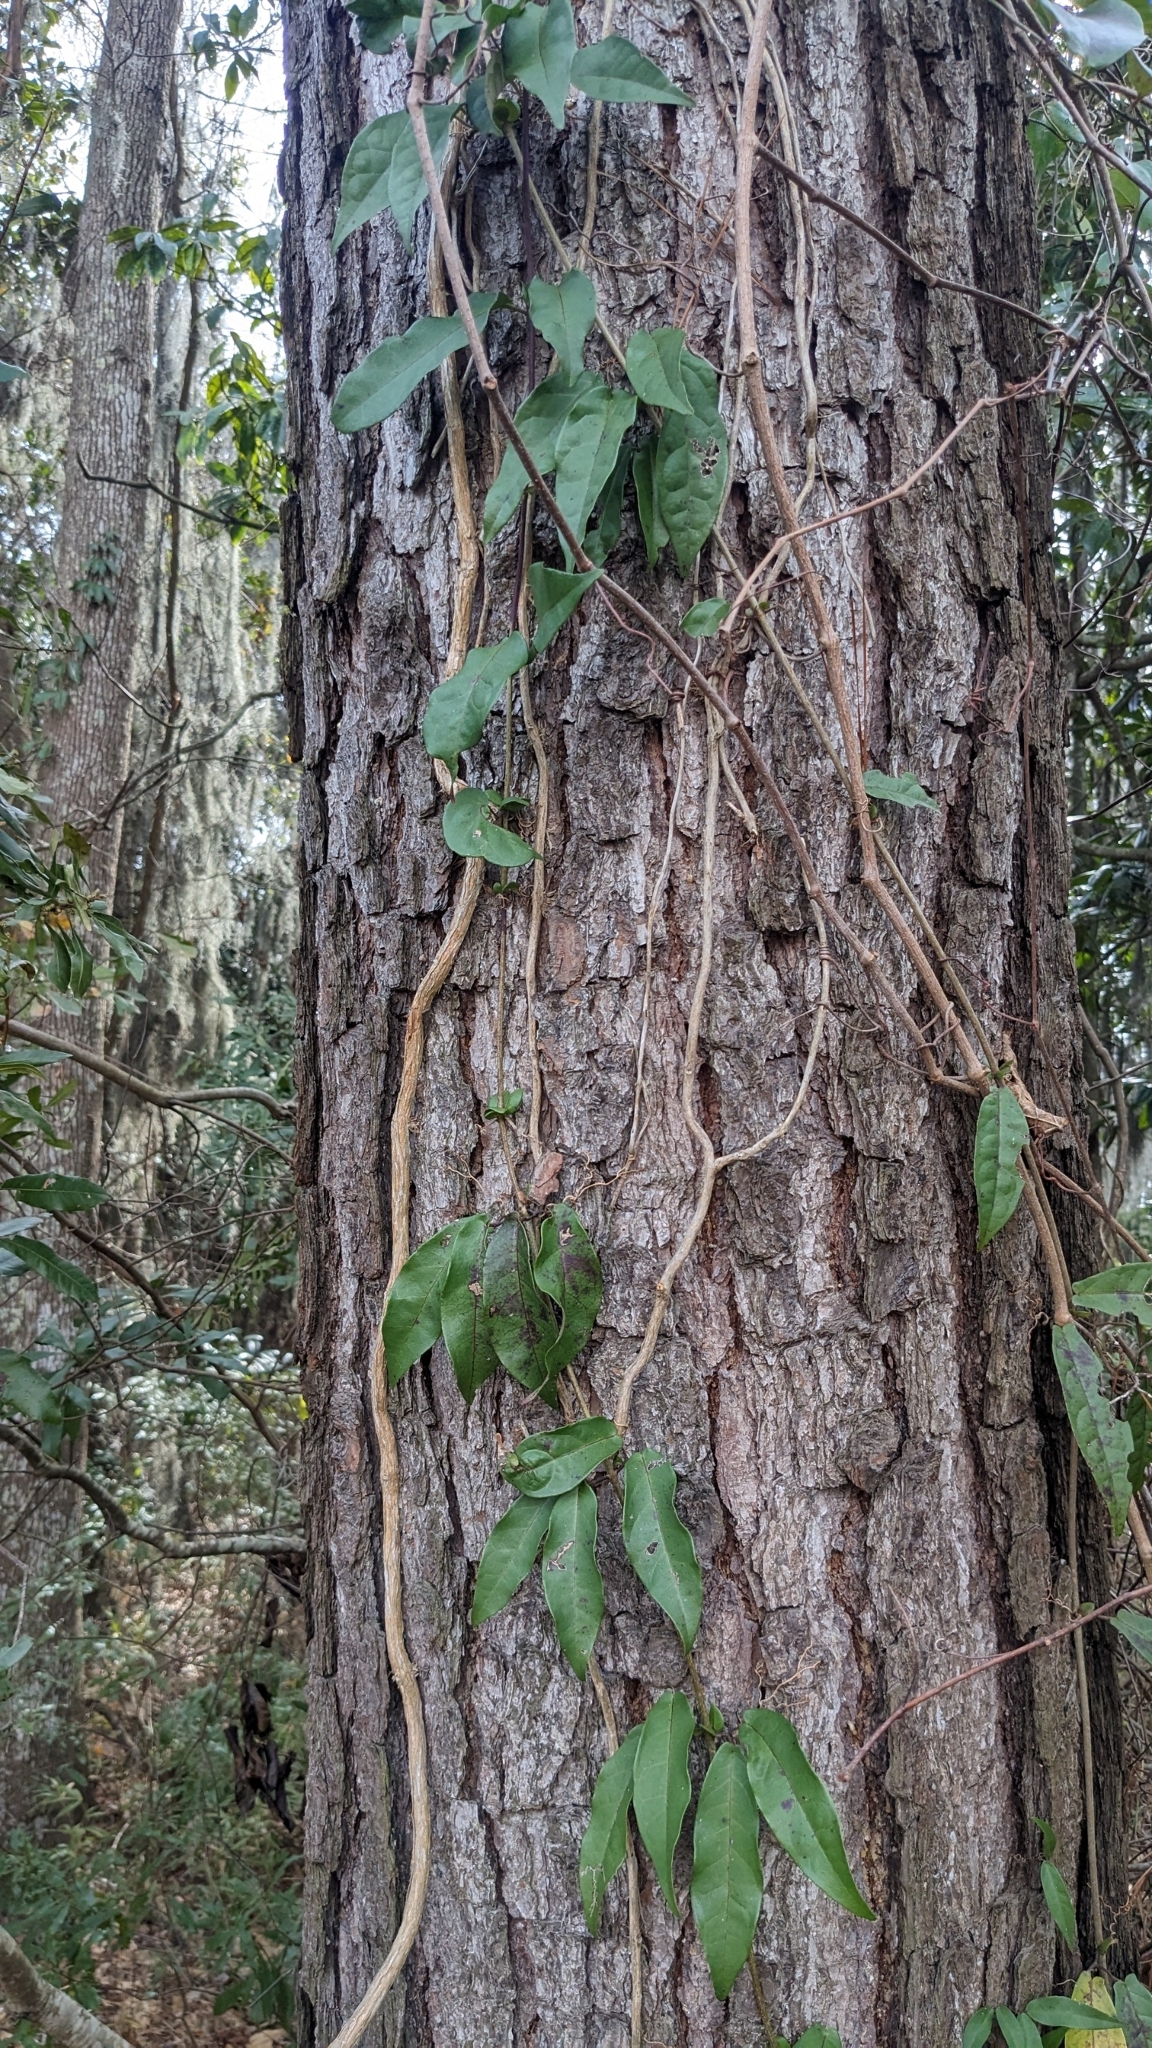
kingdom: Plantae
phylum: Tracheophyta
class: Magnoliopsida
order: Lamiales
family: Bignoniaceae
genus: Bignonia
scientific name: Bignonia capreolata
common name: Crossvine
